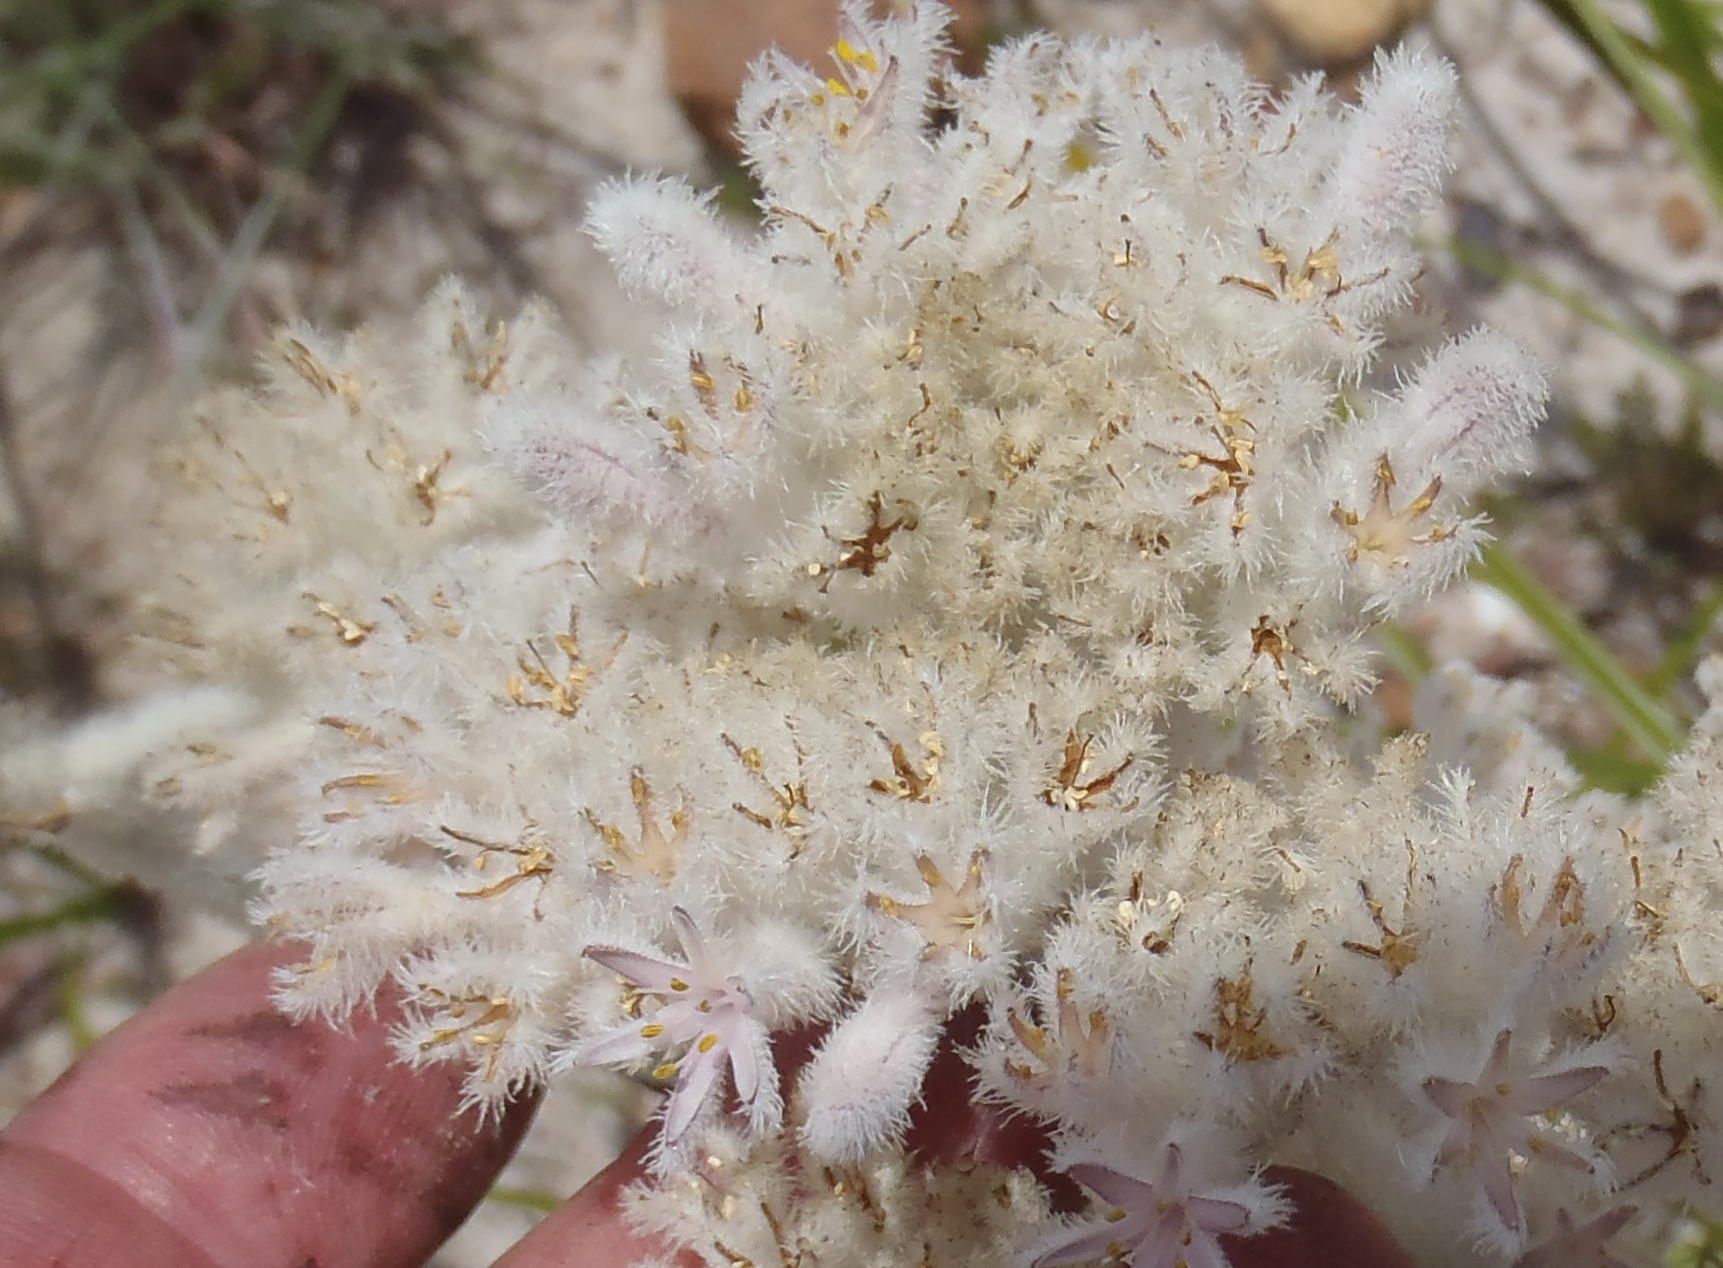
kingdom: Plantae
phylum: Tracheophyta
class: Liliopsida
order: Asparagales
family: Lanariaceae
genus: Lanaria
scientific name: Lanaria lanata
